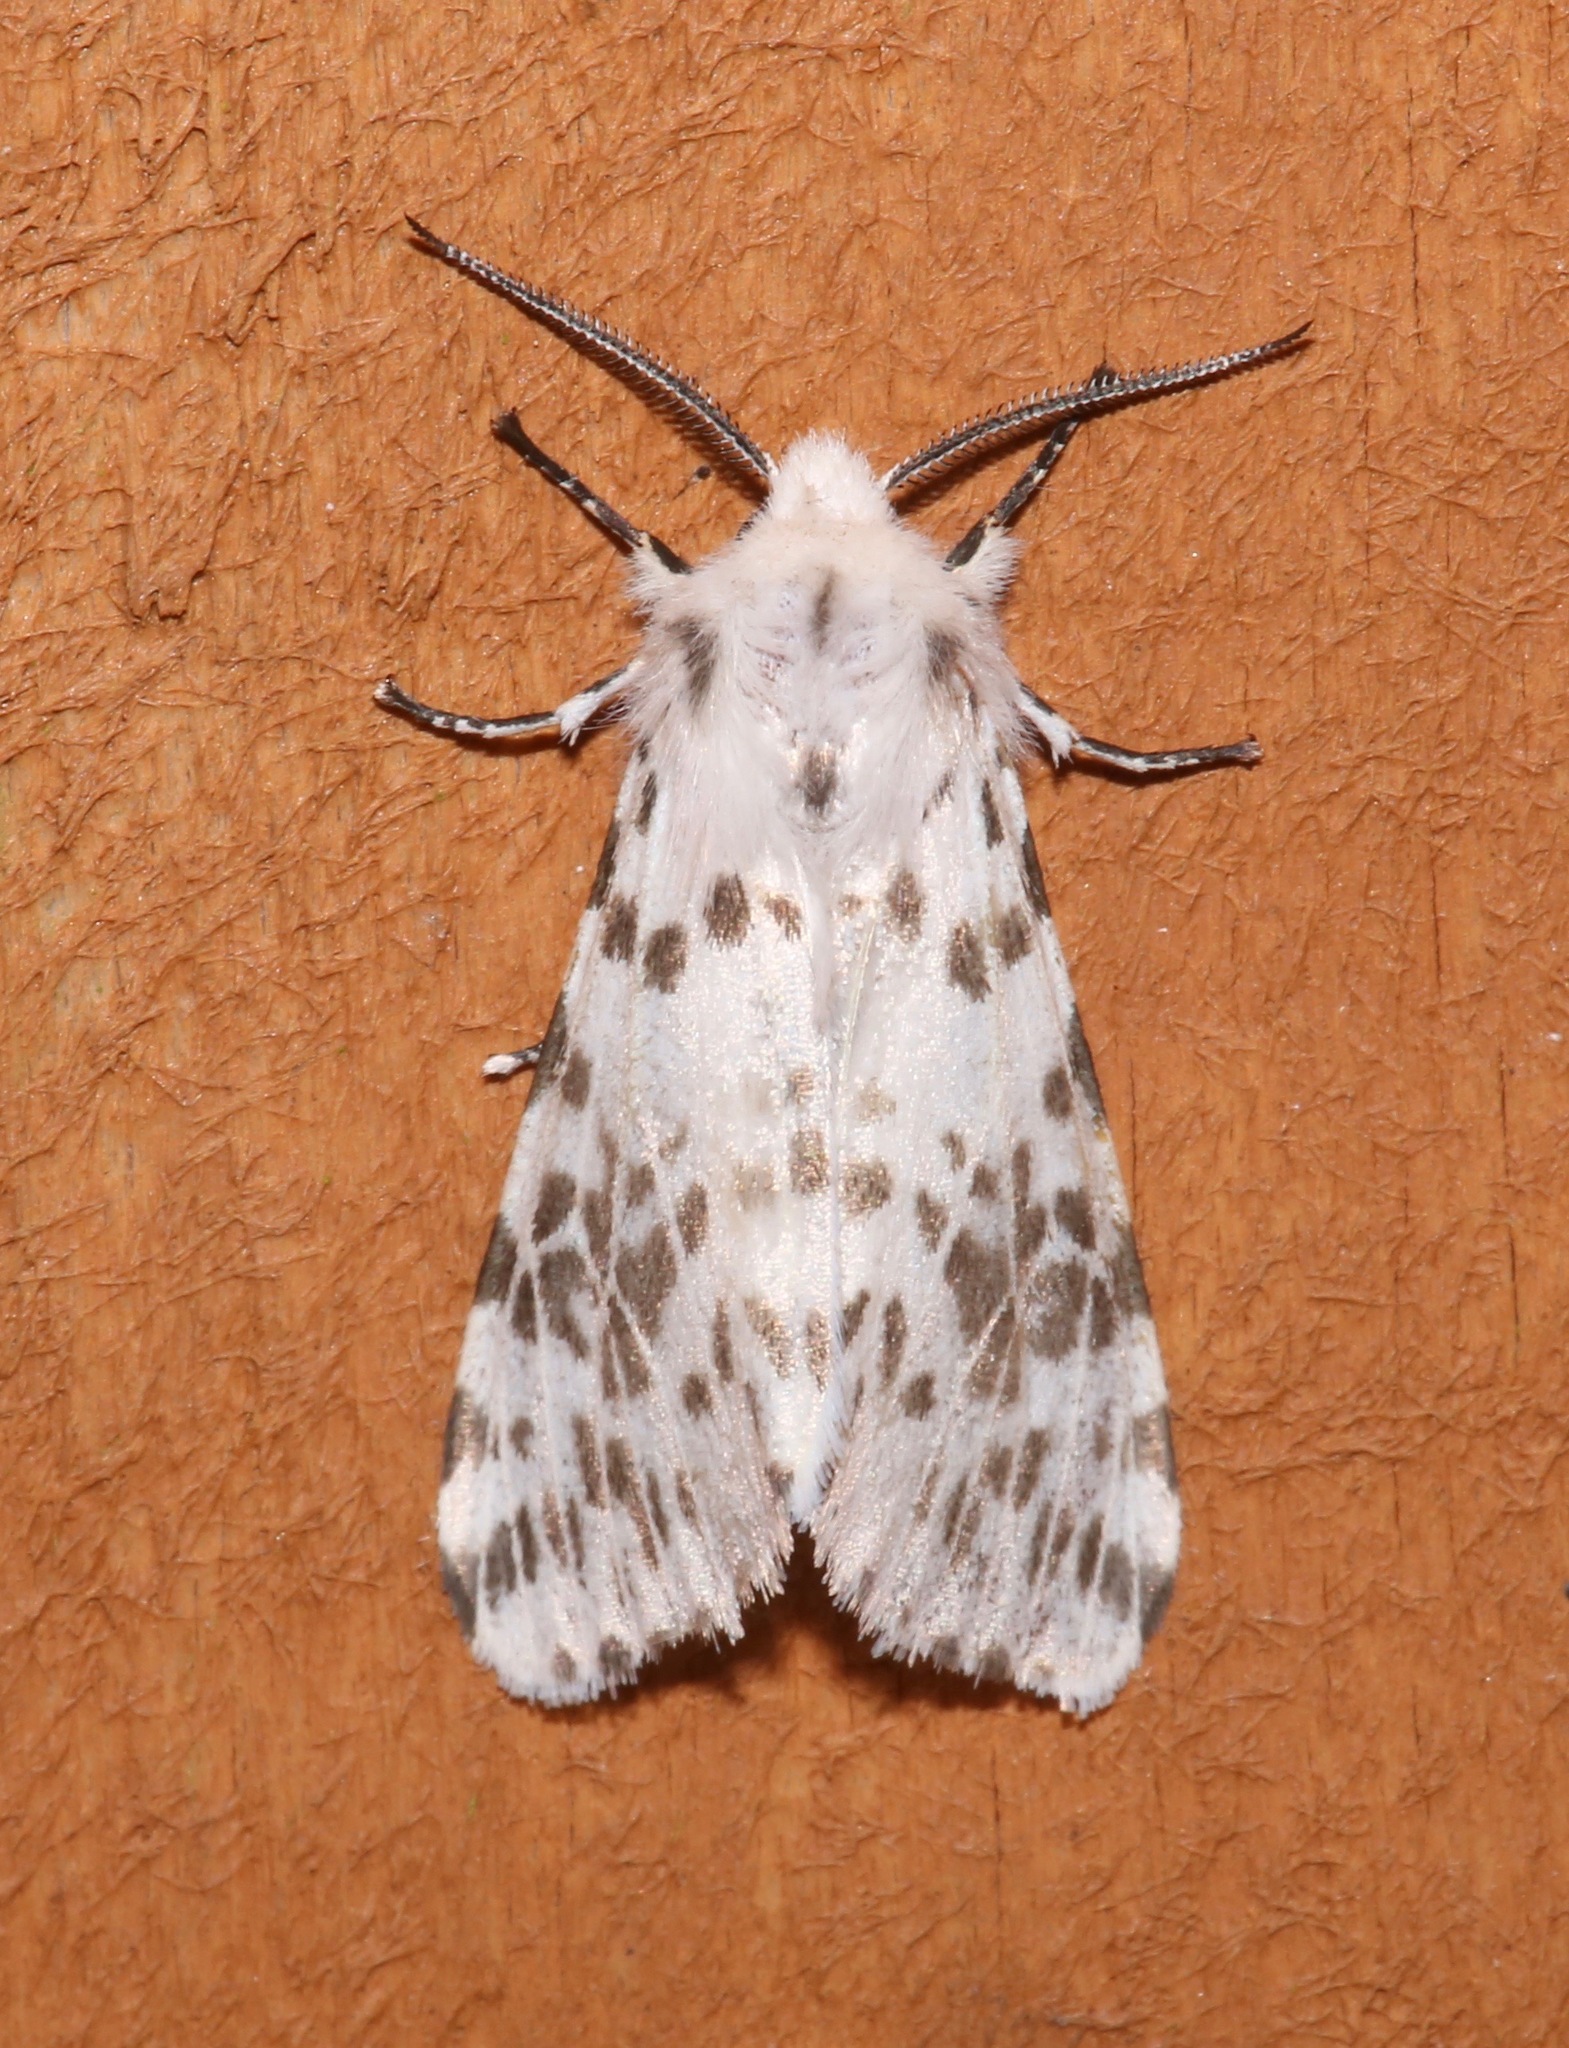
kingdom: Animalia
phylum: Arthropoda
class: Insecta
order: Lepidoptera
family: Erebidae
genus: Hyphantria
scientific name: Hyphantria cunea
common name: American white moth
